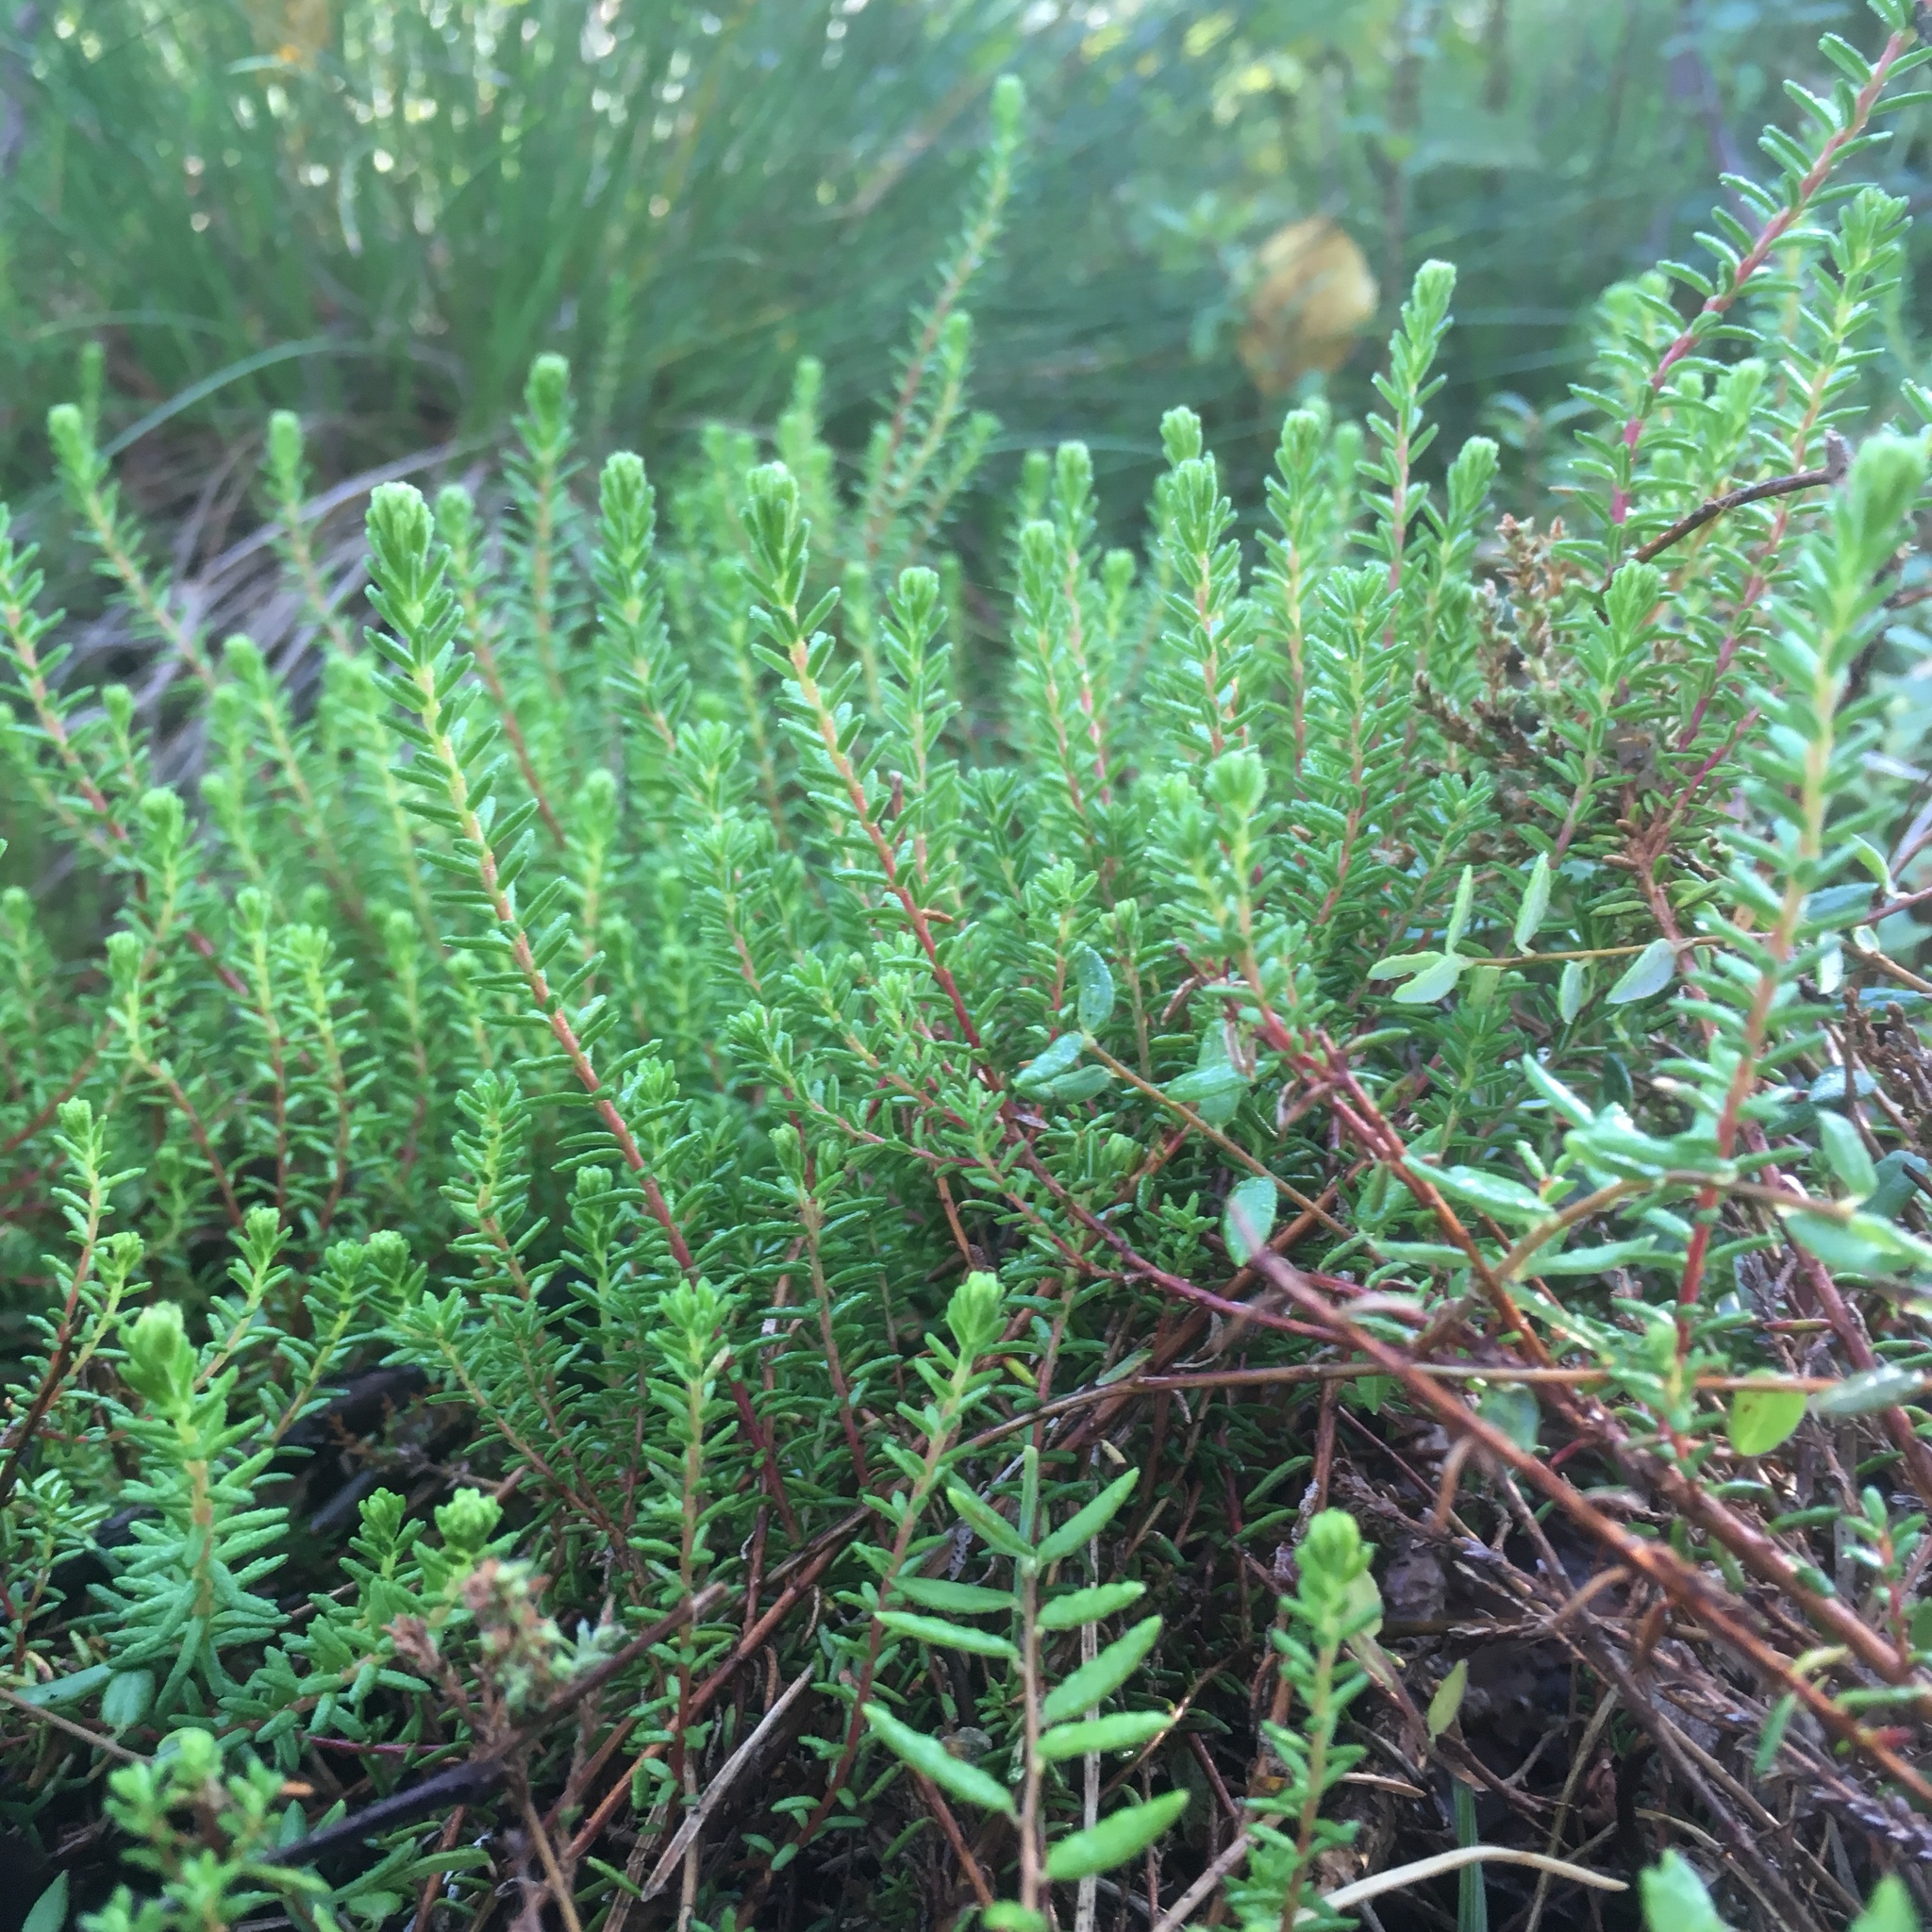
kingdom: Plantae
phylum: Tracheophyta
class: Magnoliopsida
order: Ericales
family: Ericaceae
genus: Empetrum
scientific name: Empetrum nigrum
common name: Black crowberry
